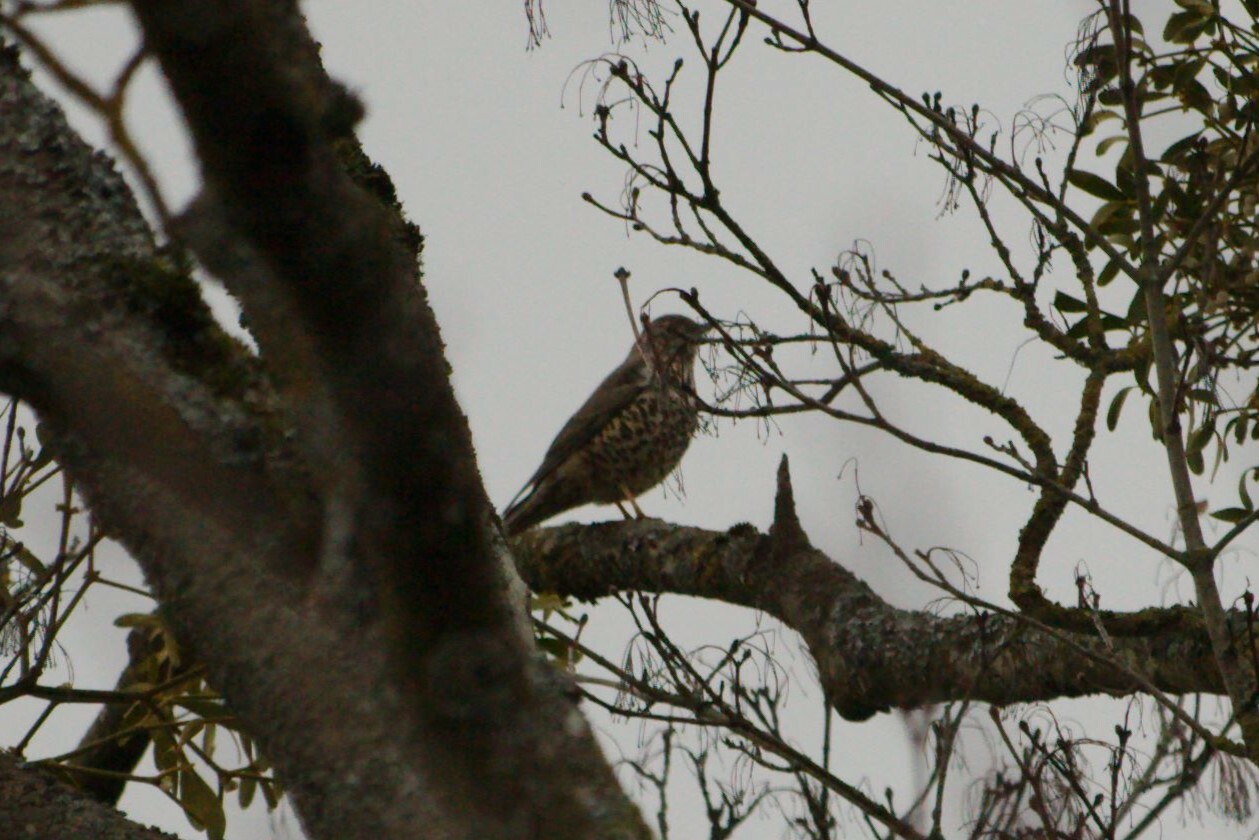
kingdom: Animalia
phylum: Chordata
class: Aves
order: Passeriformes
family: Turdidae
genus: Turdus
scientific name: Turdus viscivorus
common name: Mistle thrush
